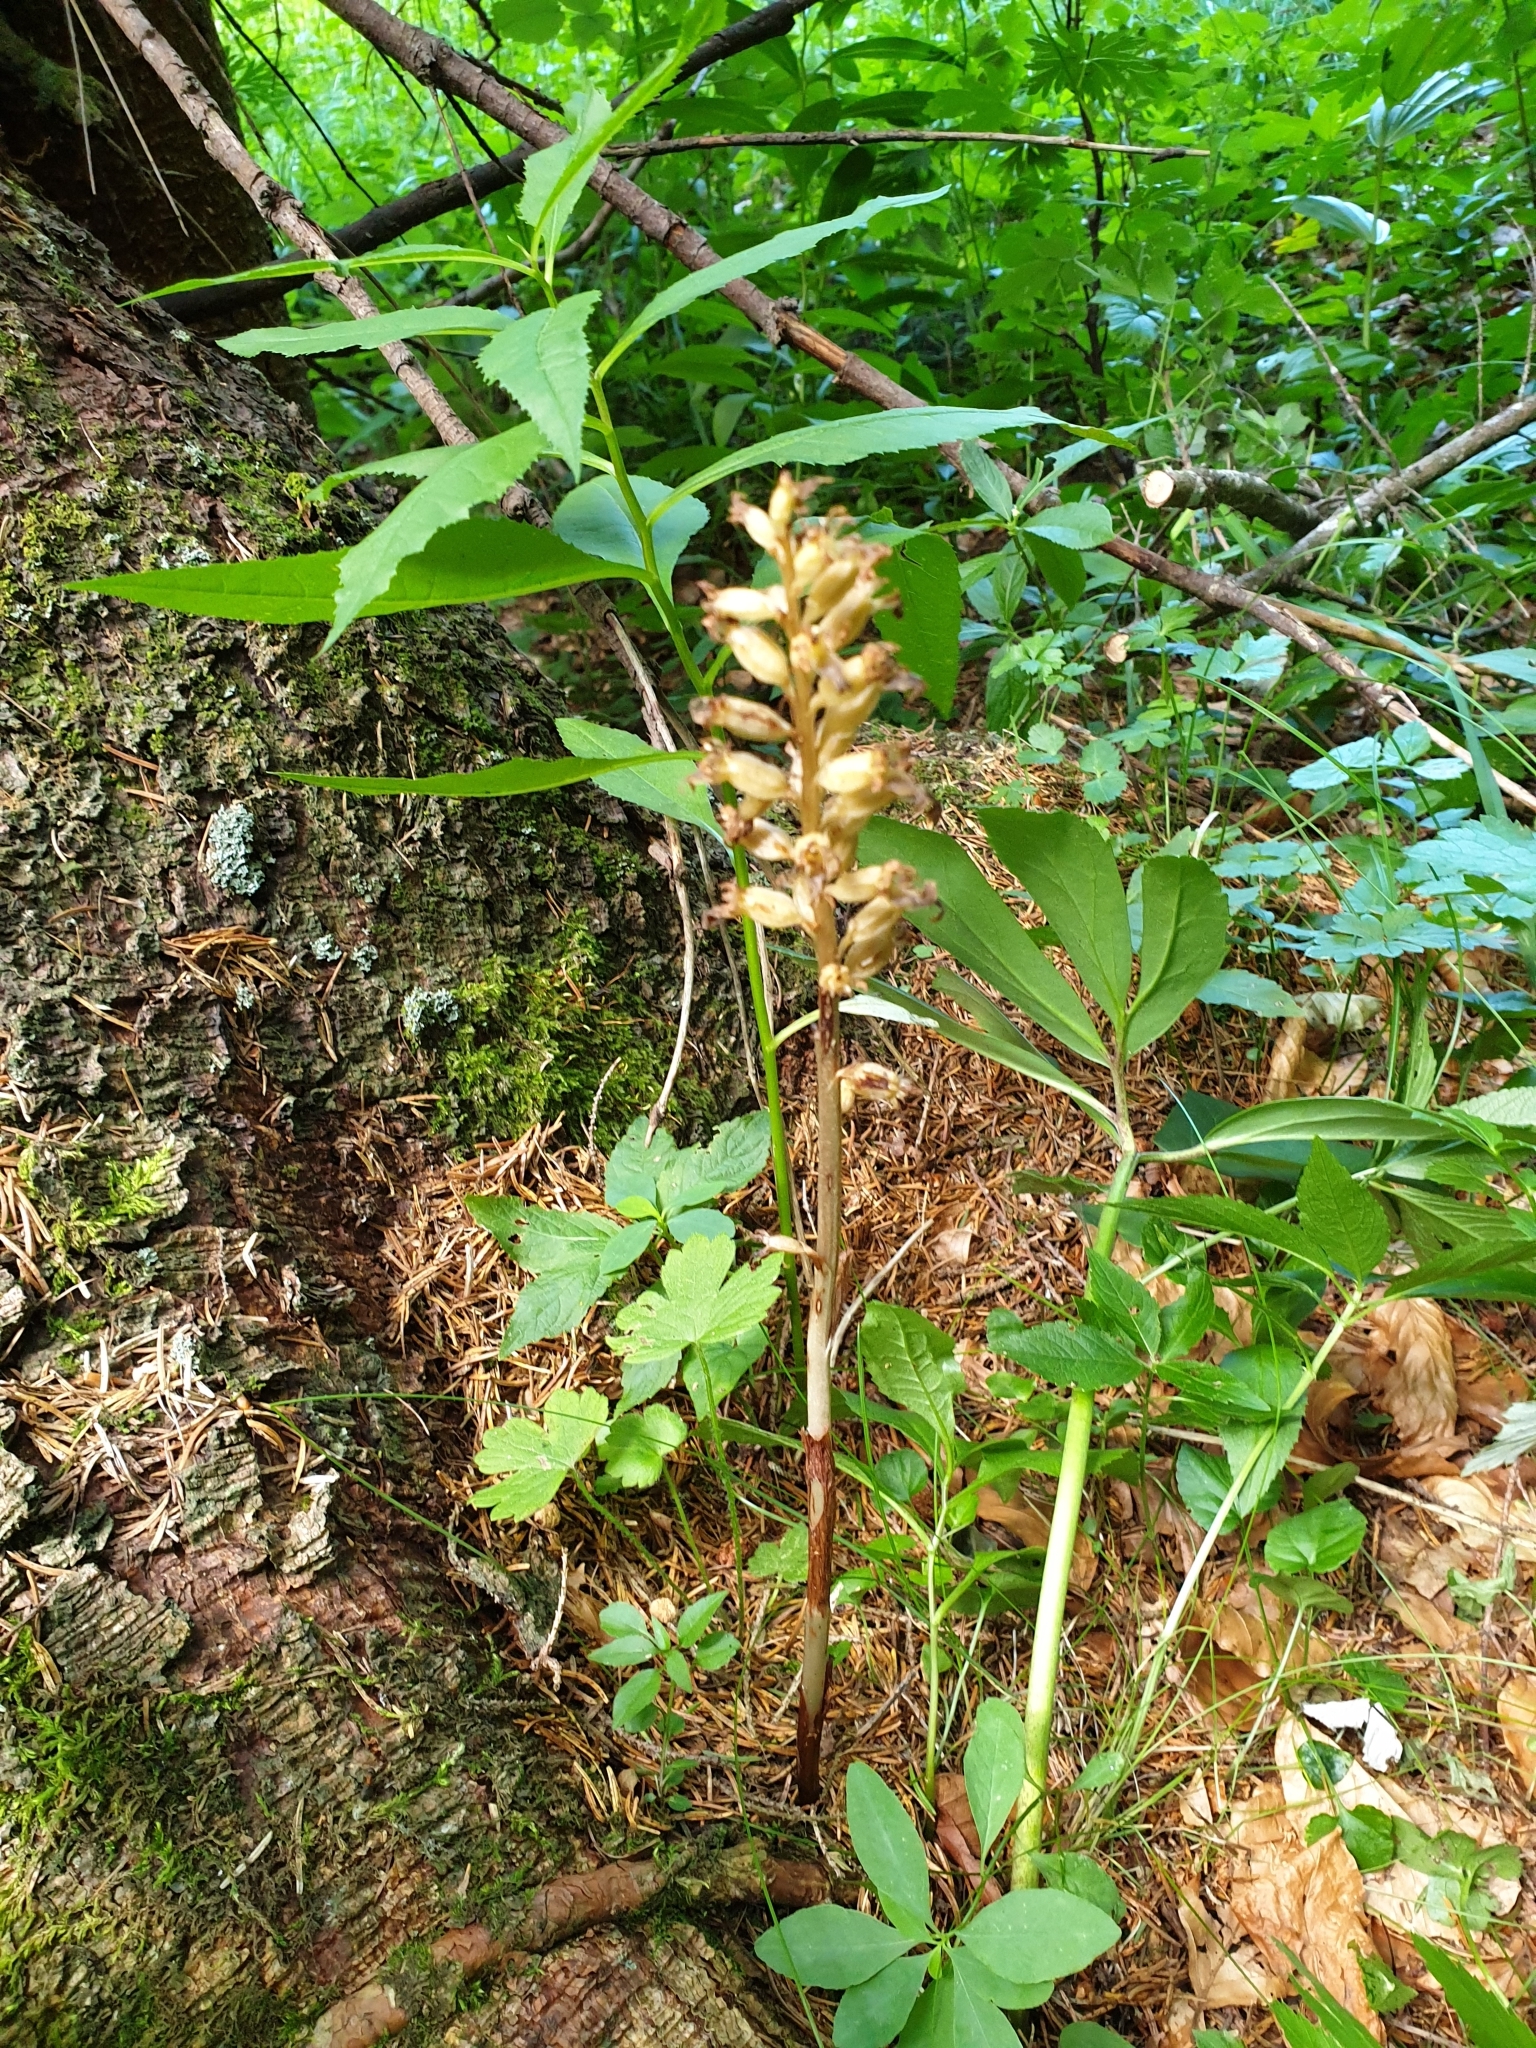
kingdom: Plantae
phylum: Tracheophyta
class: Liliopsida
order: Asparagales
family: Orchidaceae
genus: Neottia
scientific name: Neottia nidus-avis
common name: Bird's-nest orchid
